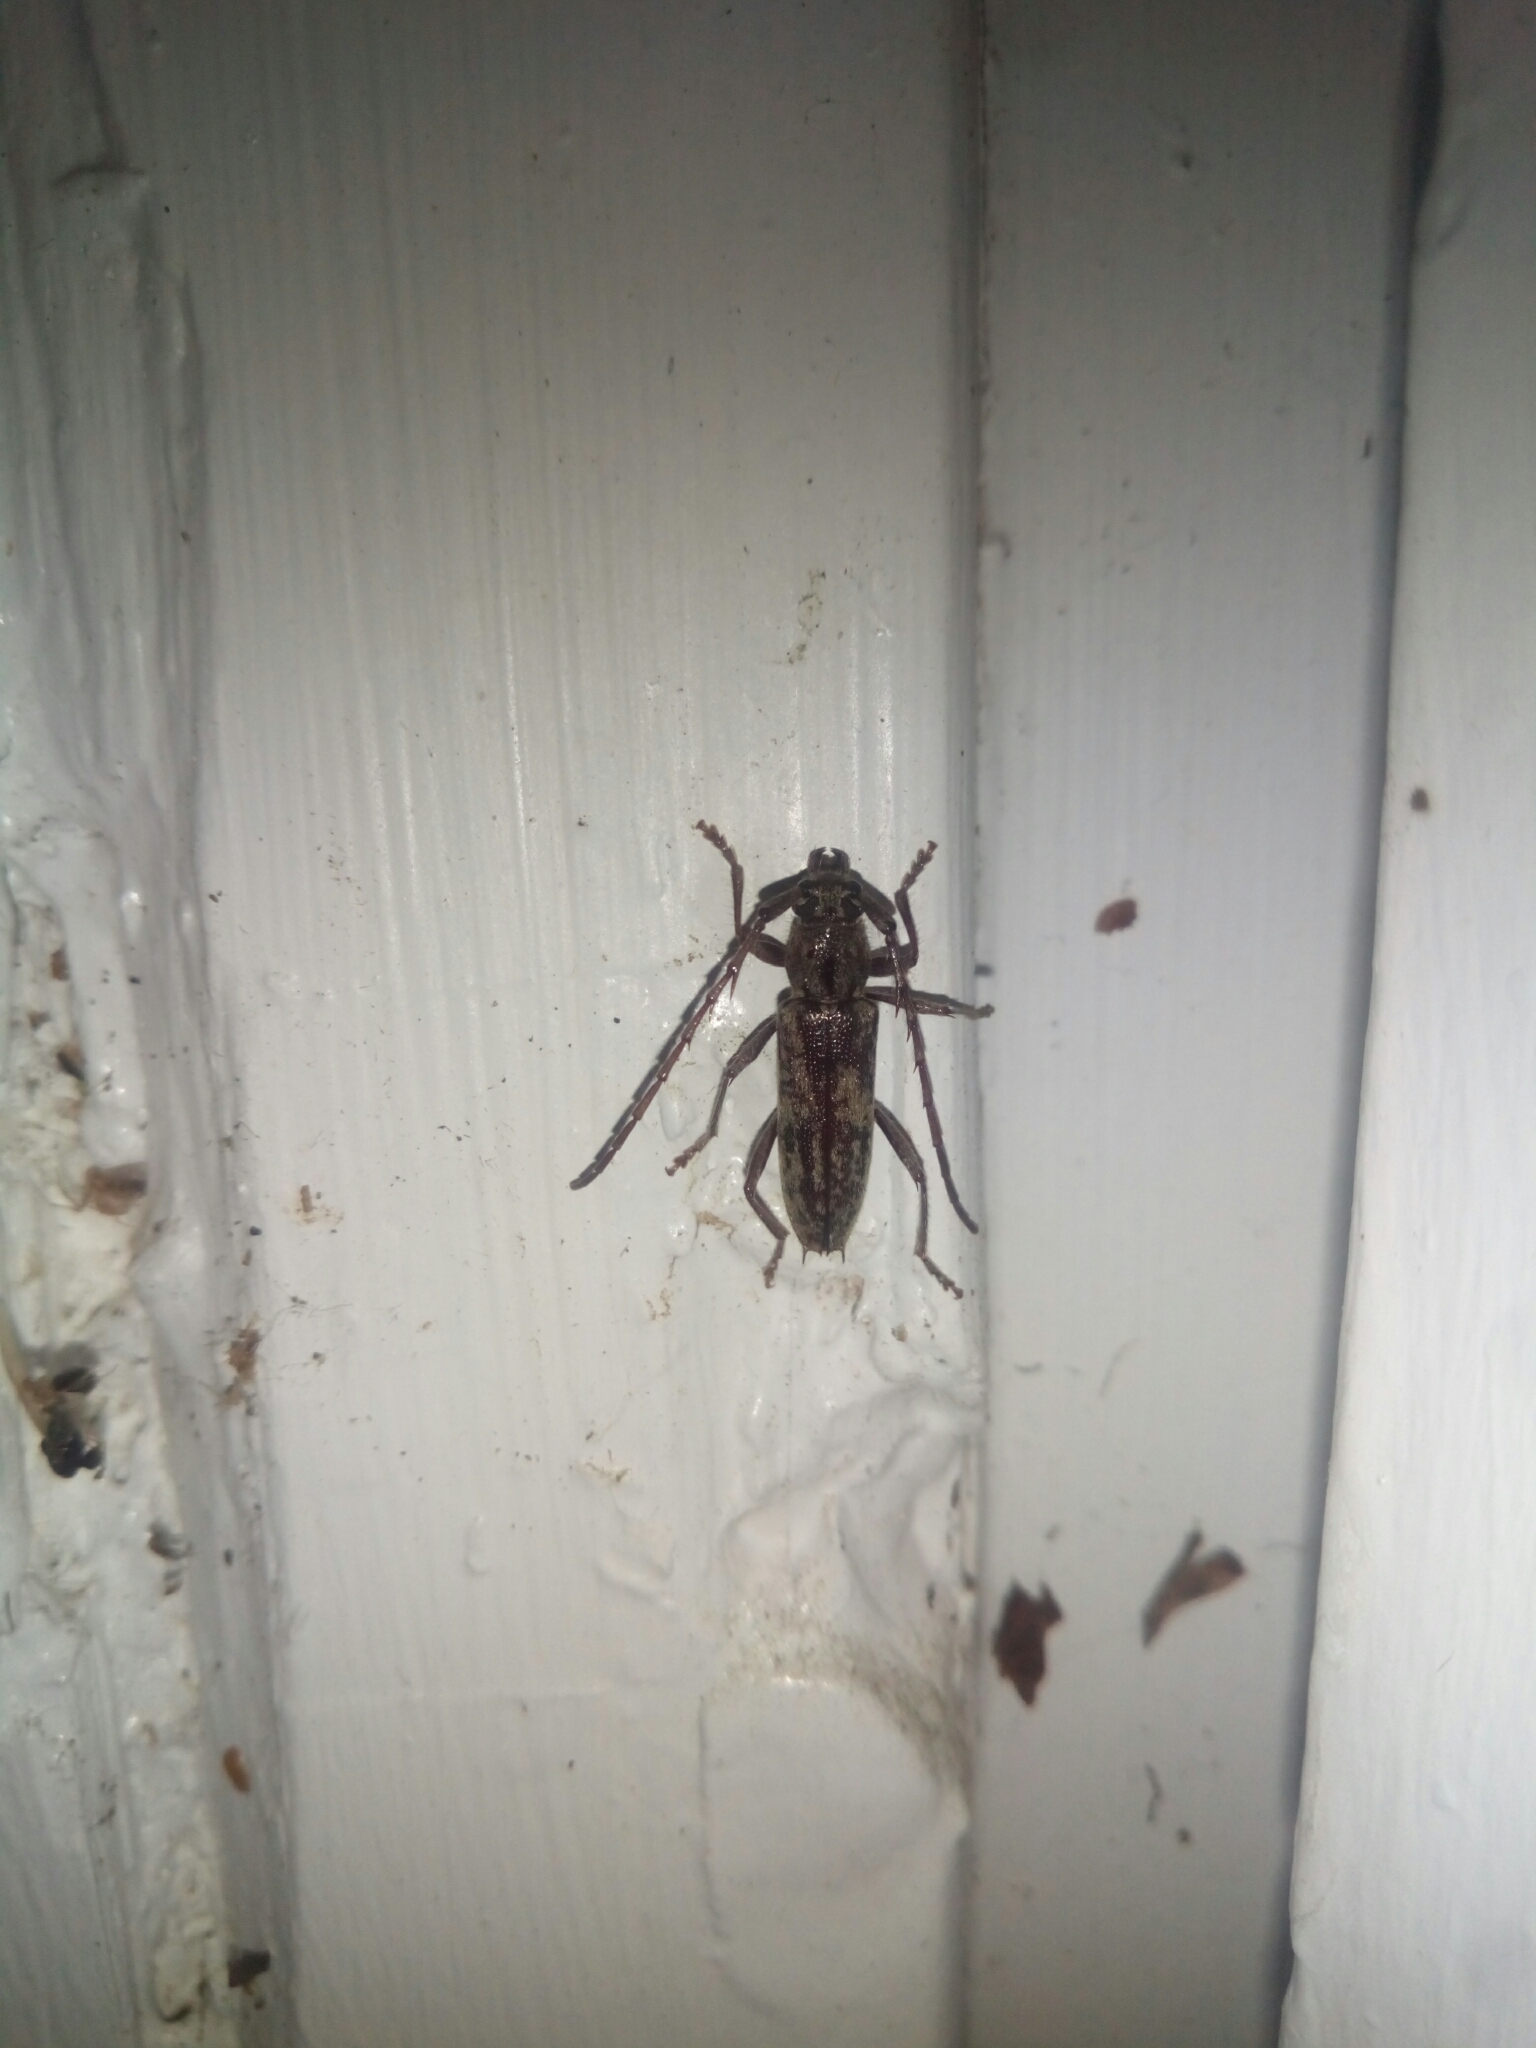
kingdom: Animalia
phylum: Arthropoda
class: Insecta
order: Coleoptera
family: Cerambycidae
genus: Elaphidion
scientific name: Elaphidion mucronatum
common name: Spined oak borer
